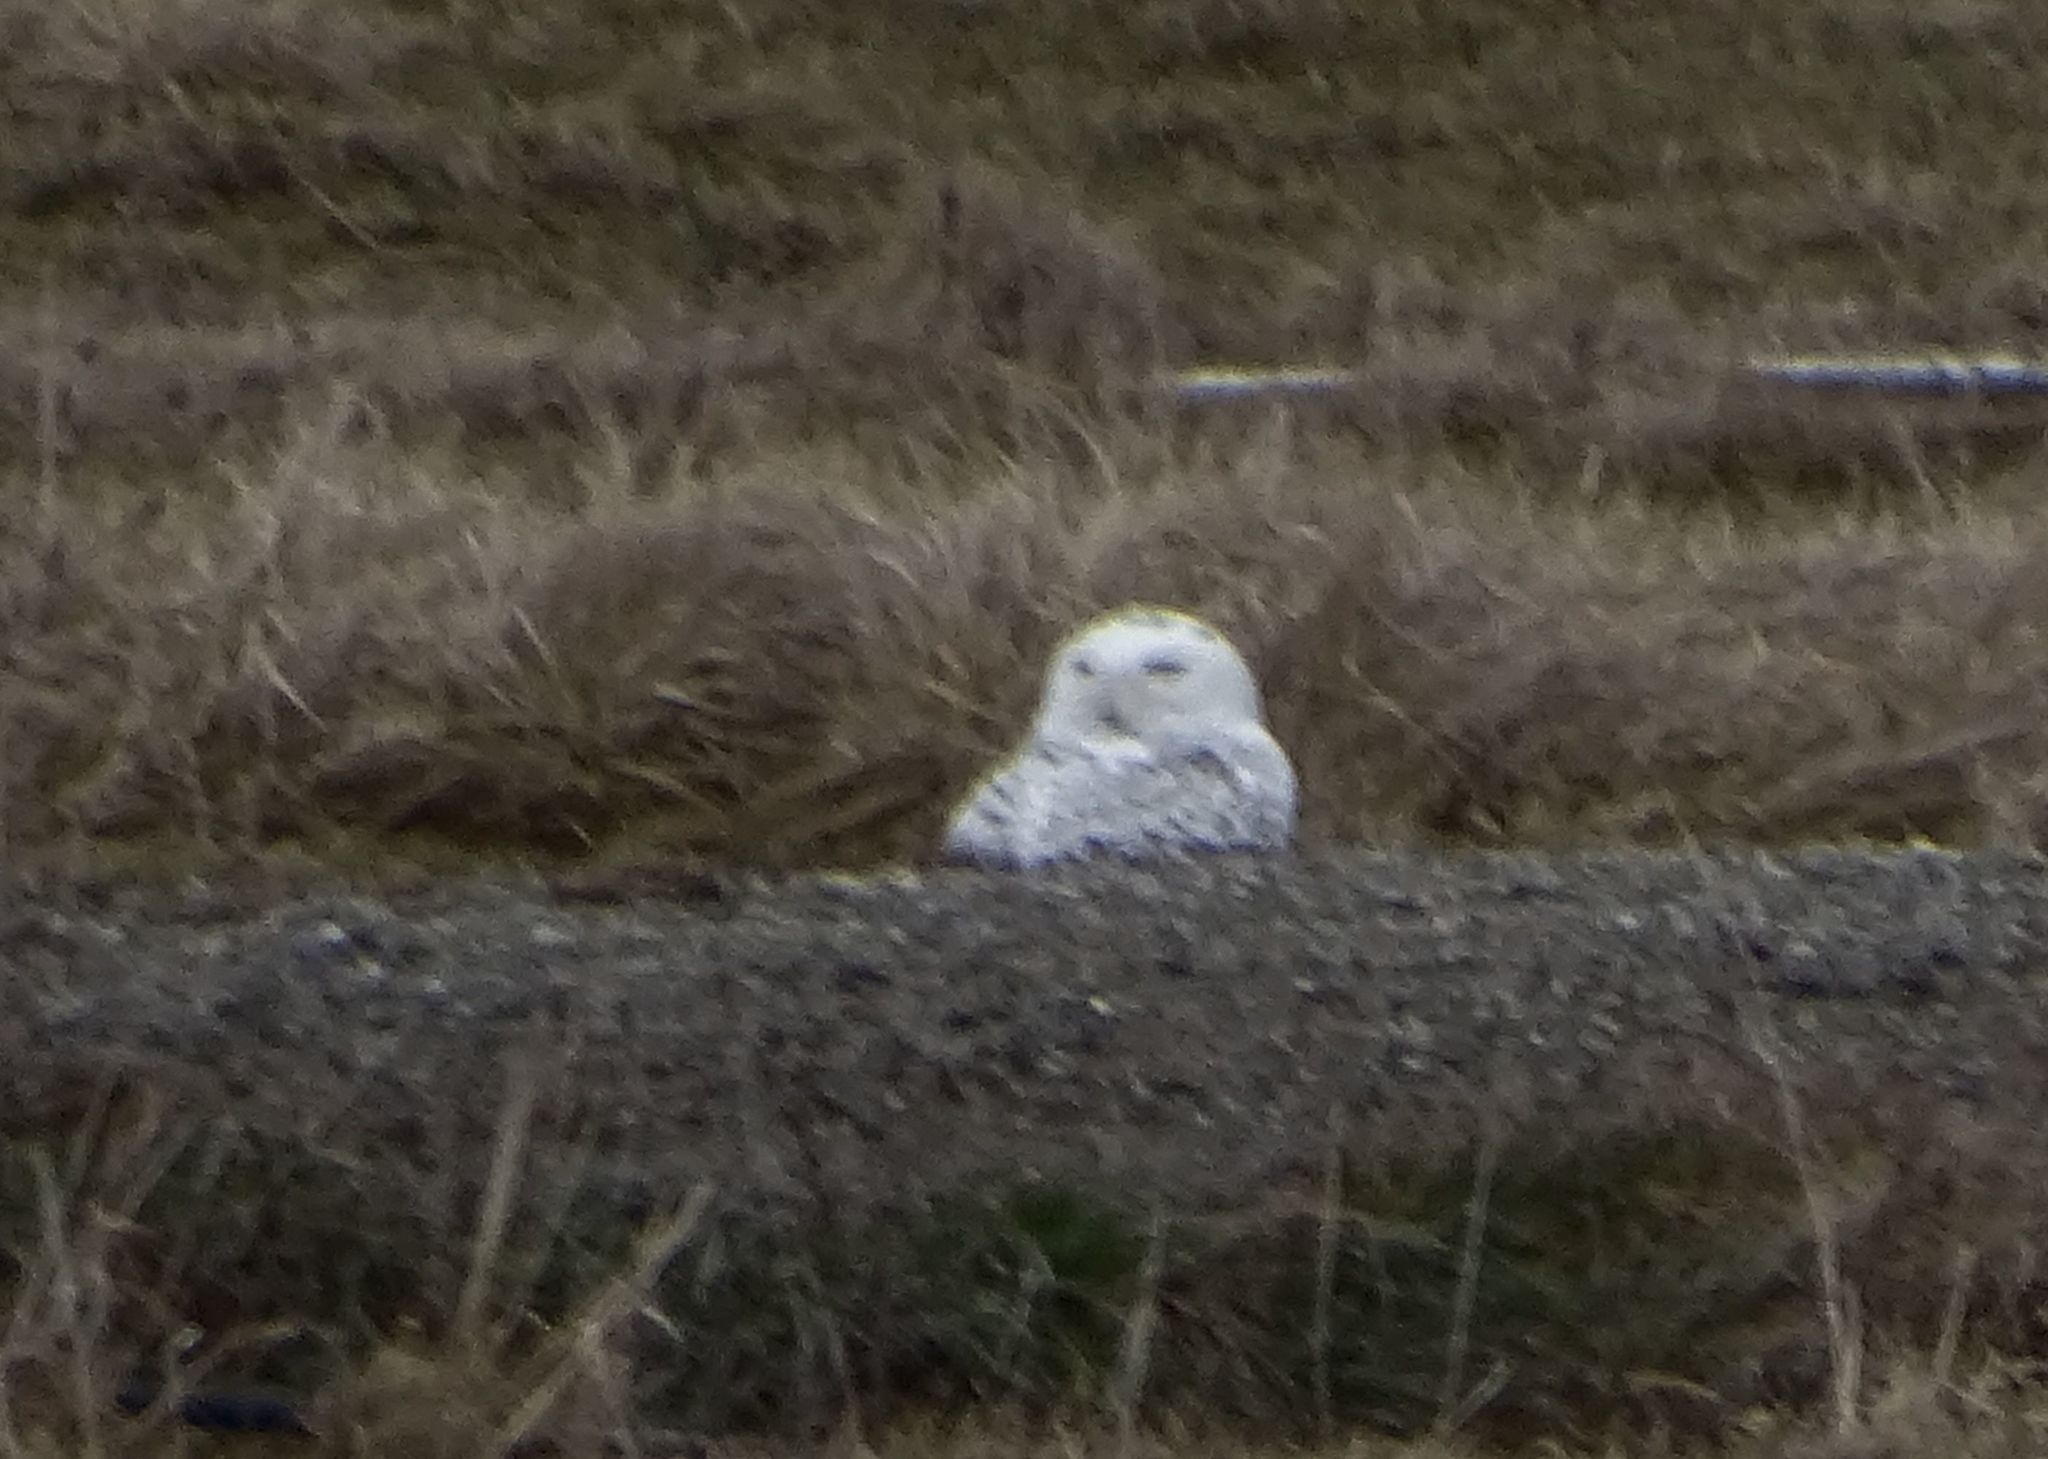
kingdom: Animalia
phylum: Chordata
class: Aves
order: Strigiformes
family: Strigidae
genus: Bubo
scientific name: Bubo scandiacus
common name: Snowy owl
